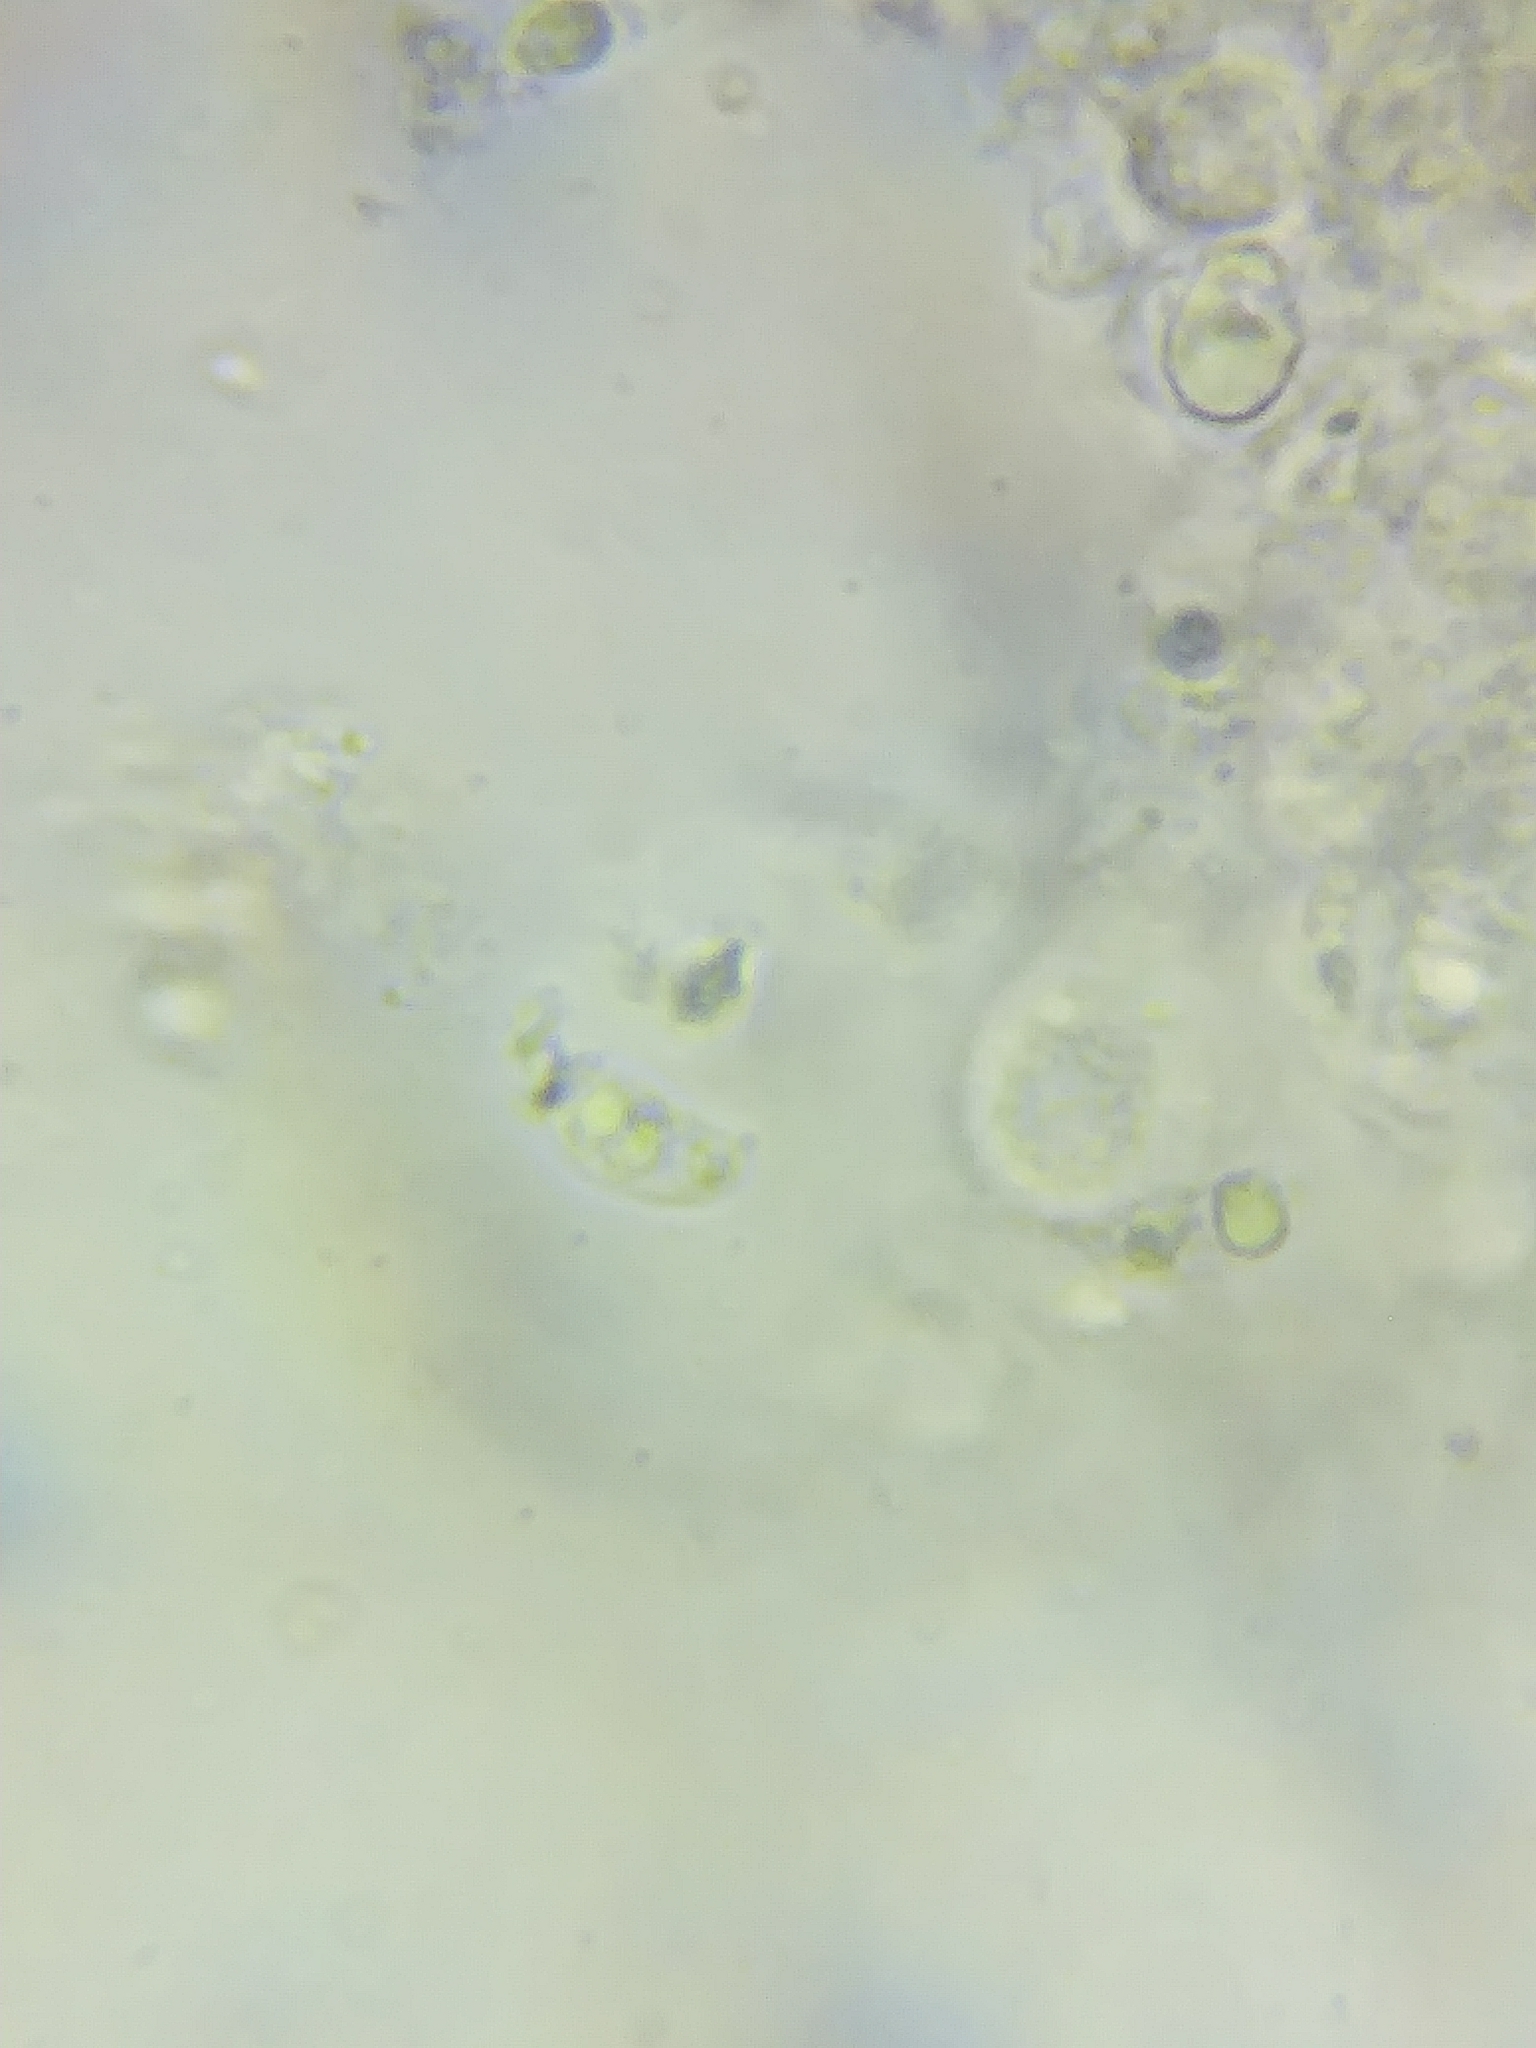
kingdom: Fungi
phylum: Basidiomycota
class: Agaricomycetes
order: Agaricales
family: Mycenaceae
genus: Mycena
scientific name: Mycena pura
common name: Lilac bonnet
